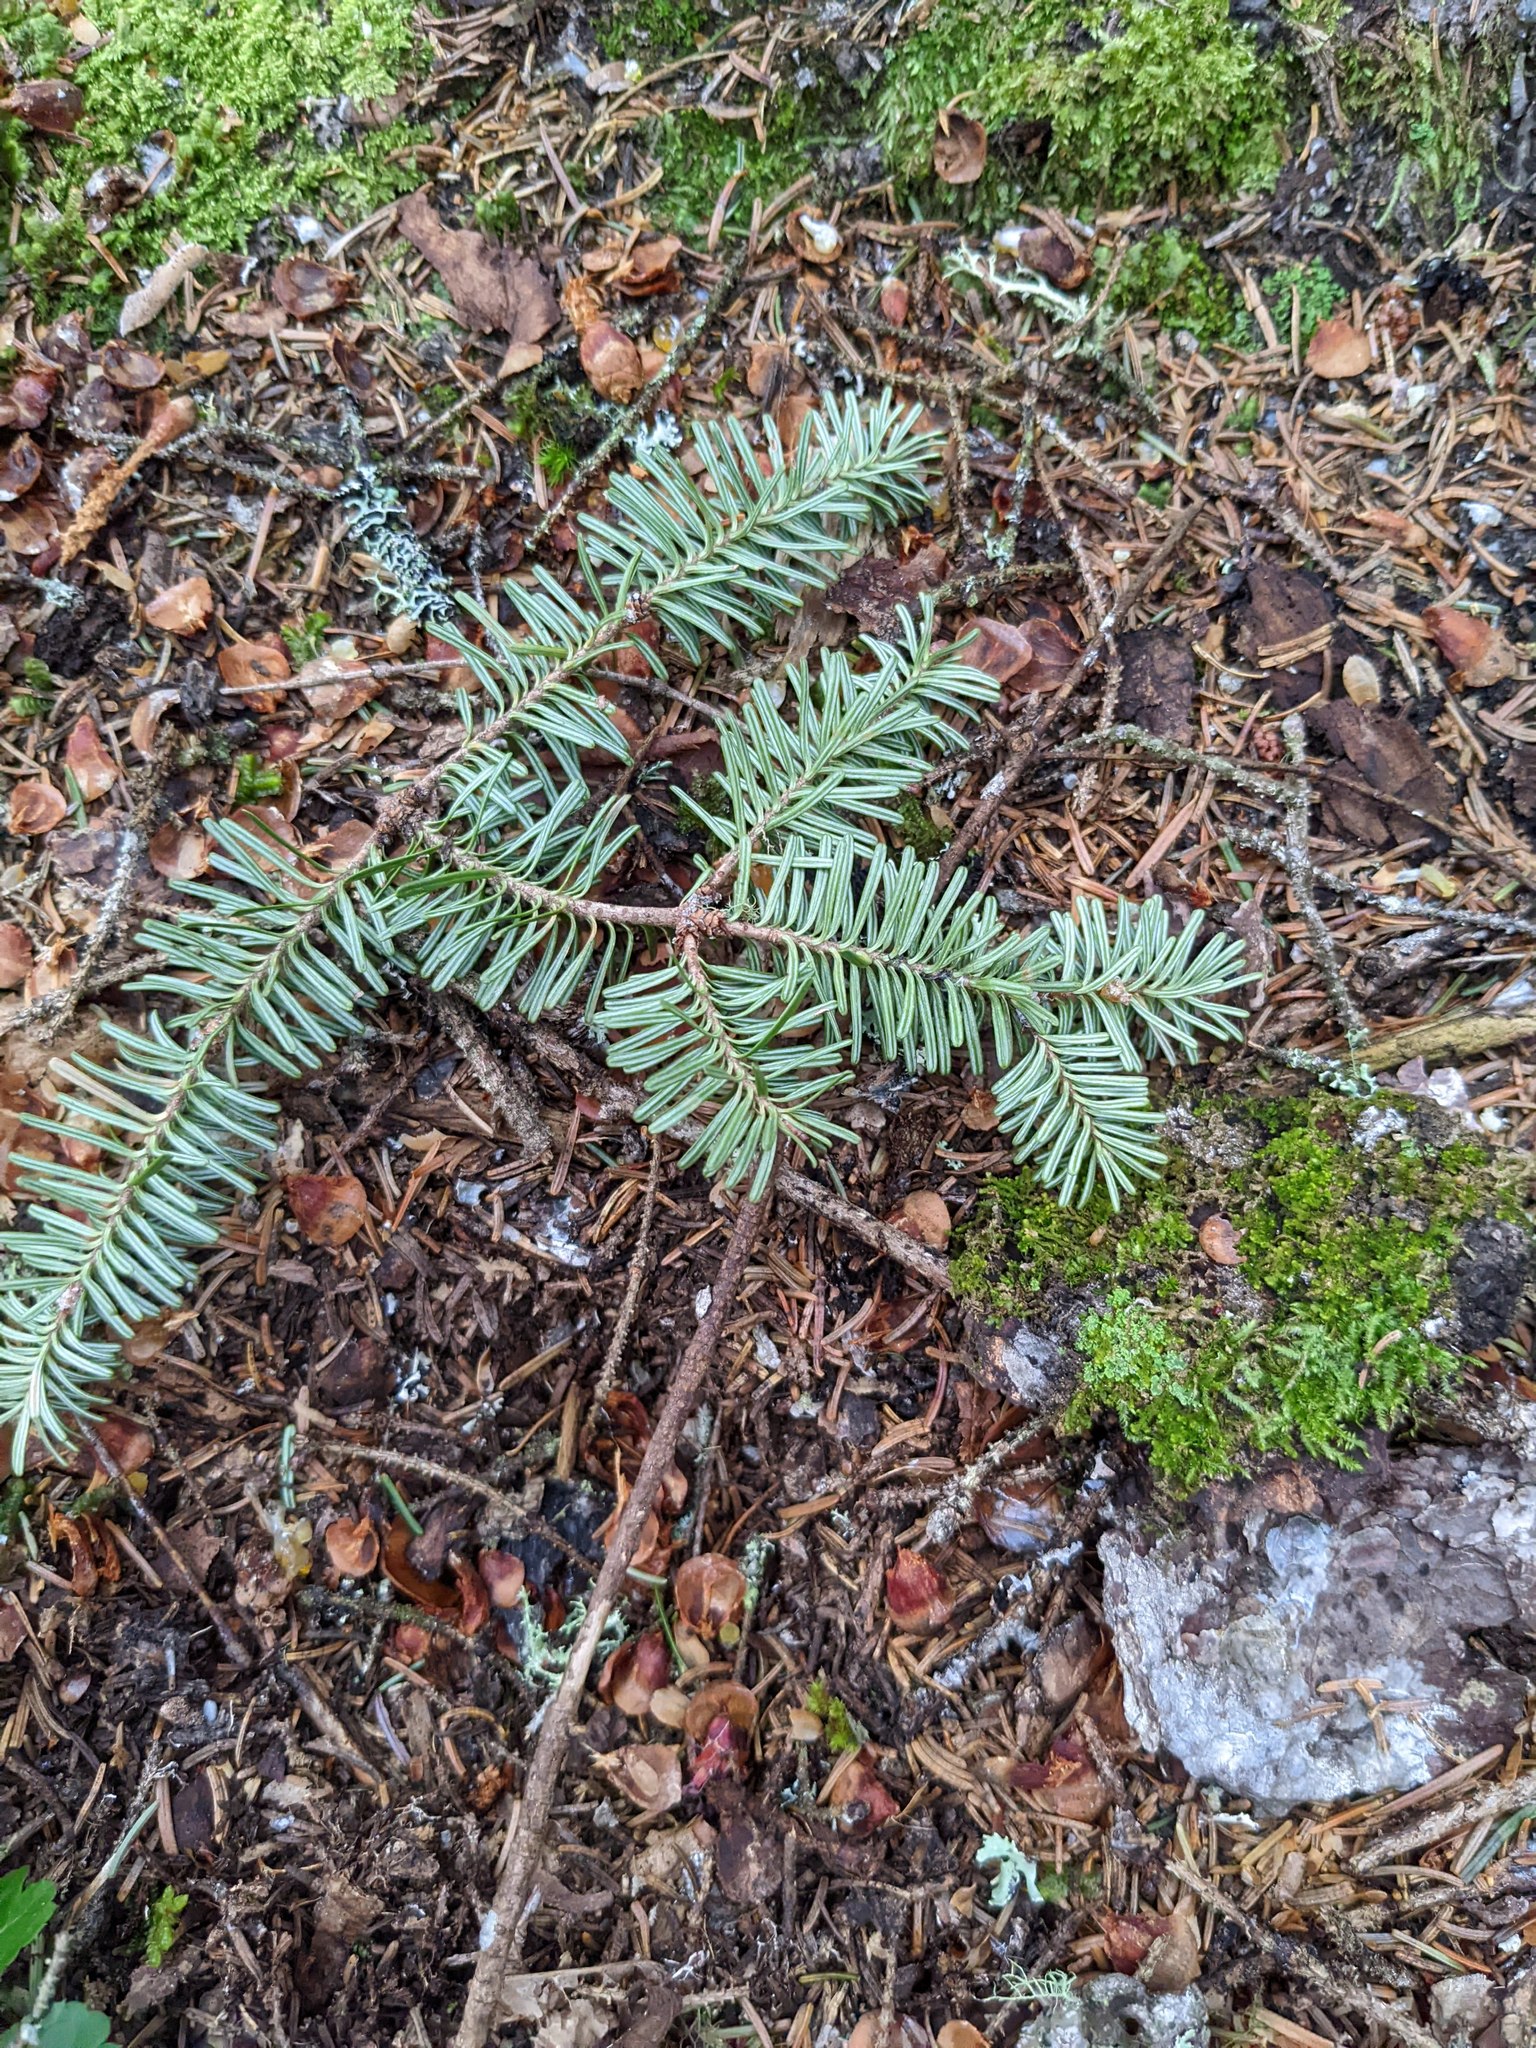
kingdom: Plantae
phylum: Tracheophyta
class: Pinopsida
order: Pinales
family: Pinaceae
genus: Abies
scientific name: Abies balsamea
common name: Balsam fir
